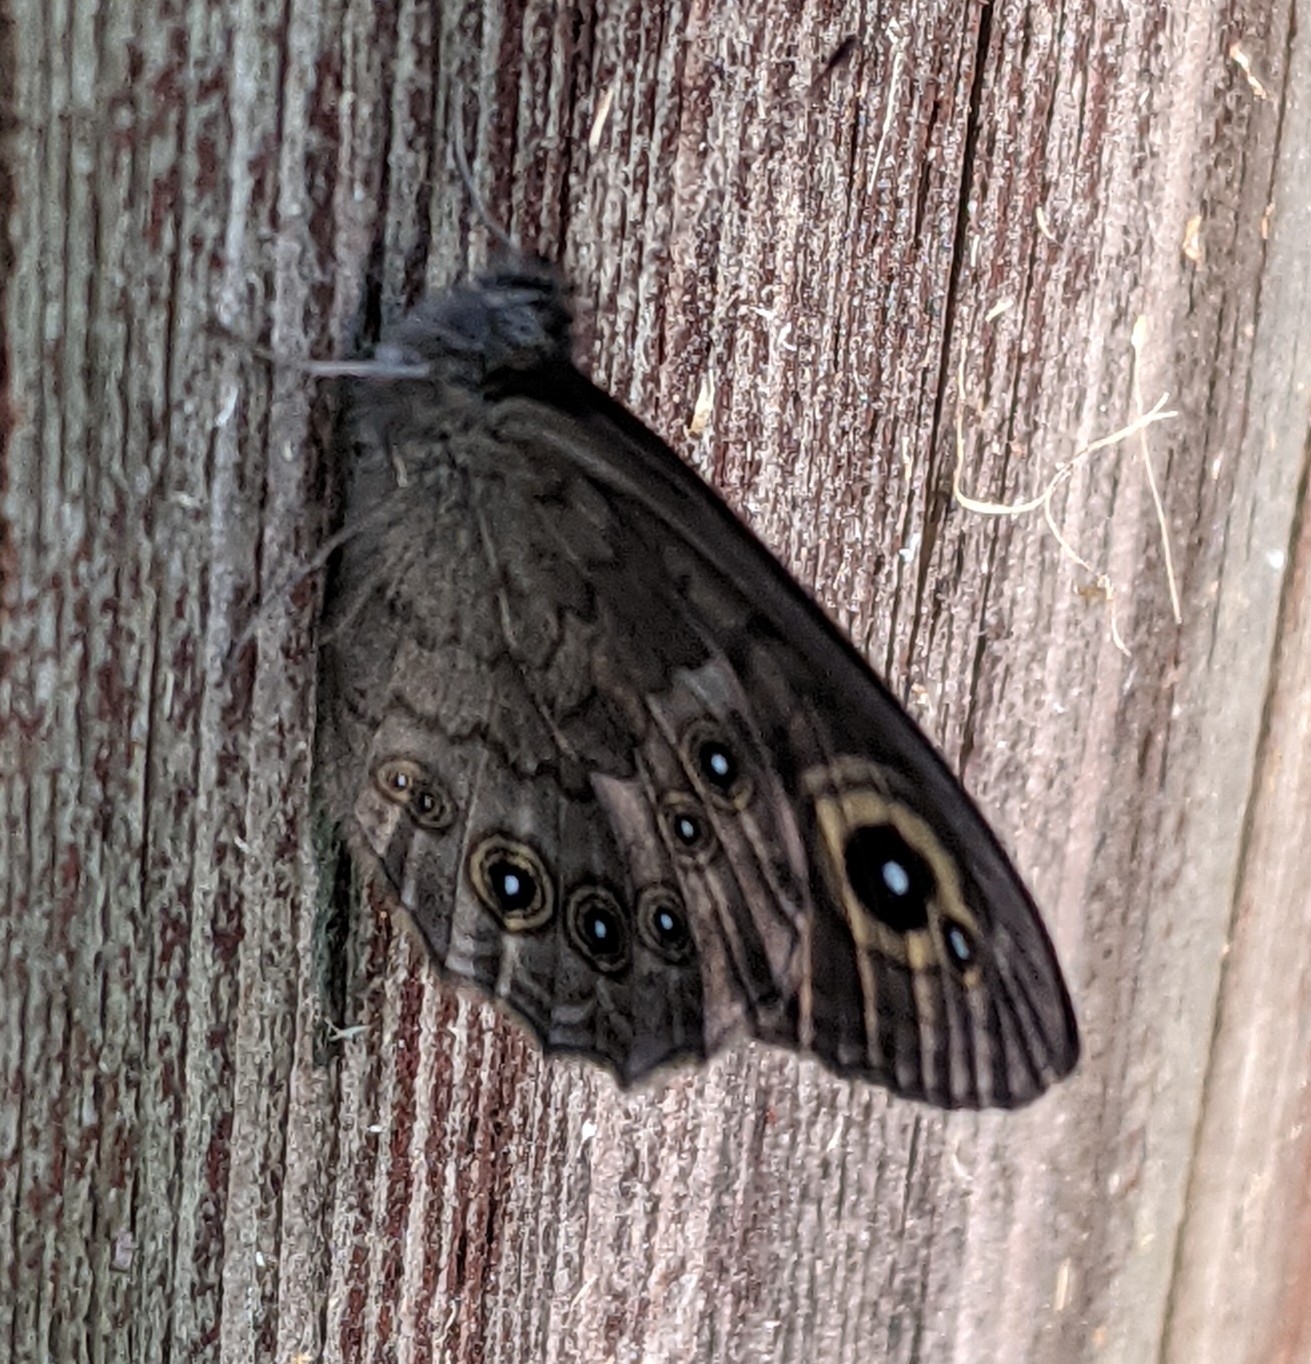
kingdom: Animalia
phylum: Arthropoda
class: Insecta
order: Lepidoptera
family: Nymphalidae
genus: Pararge
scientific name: Pararge Lasiommata maera
